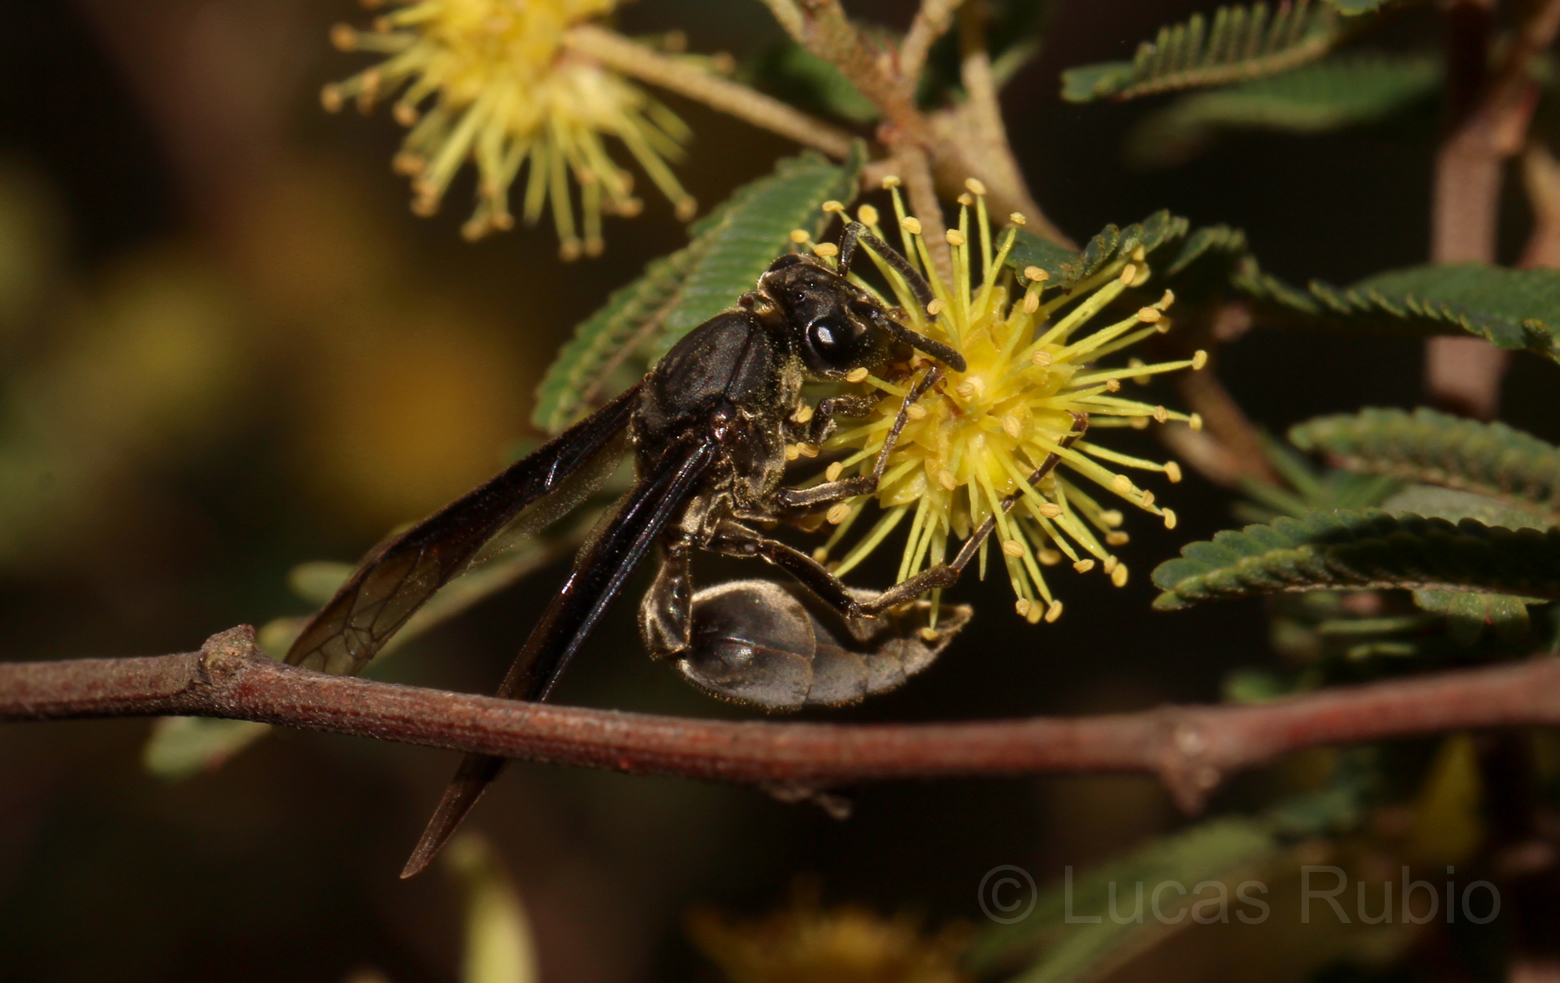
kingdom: Animalia
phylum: Arthropoda
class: Insecta
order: Hymenoptera
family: Eumenidae
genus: Polybia
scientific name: Polybia ignobilis
